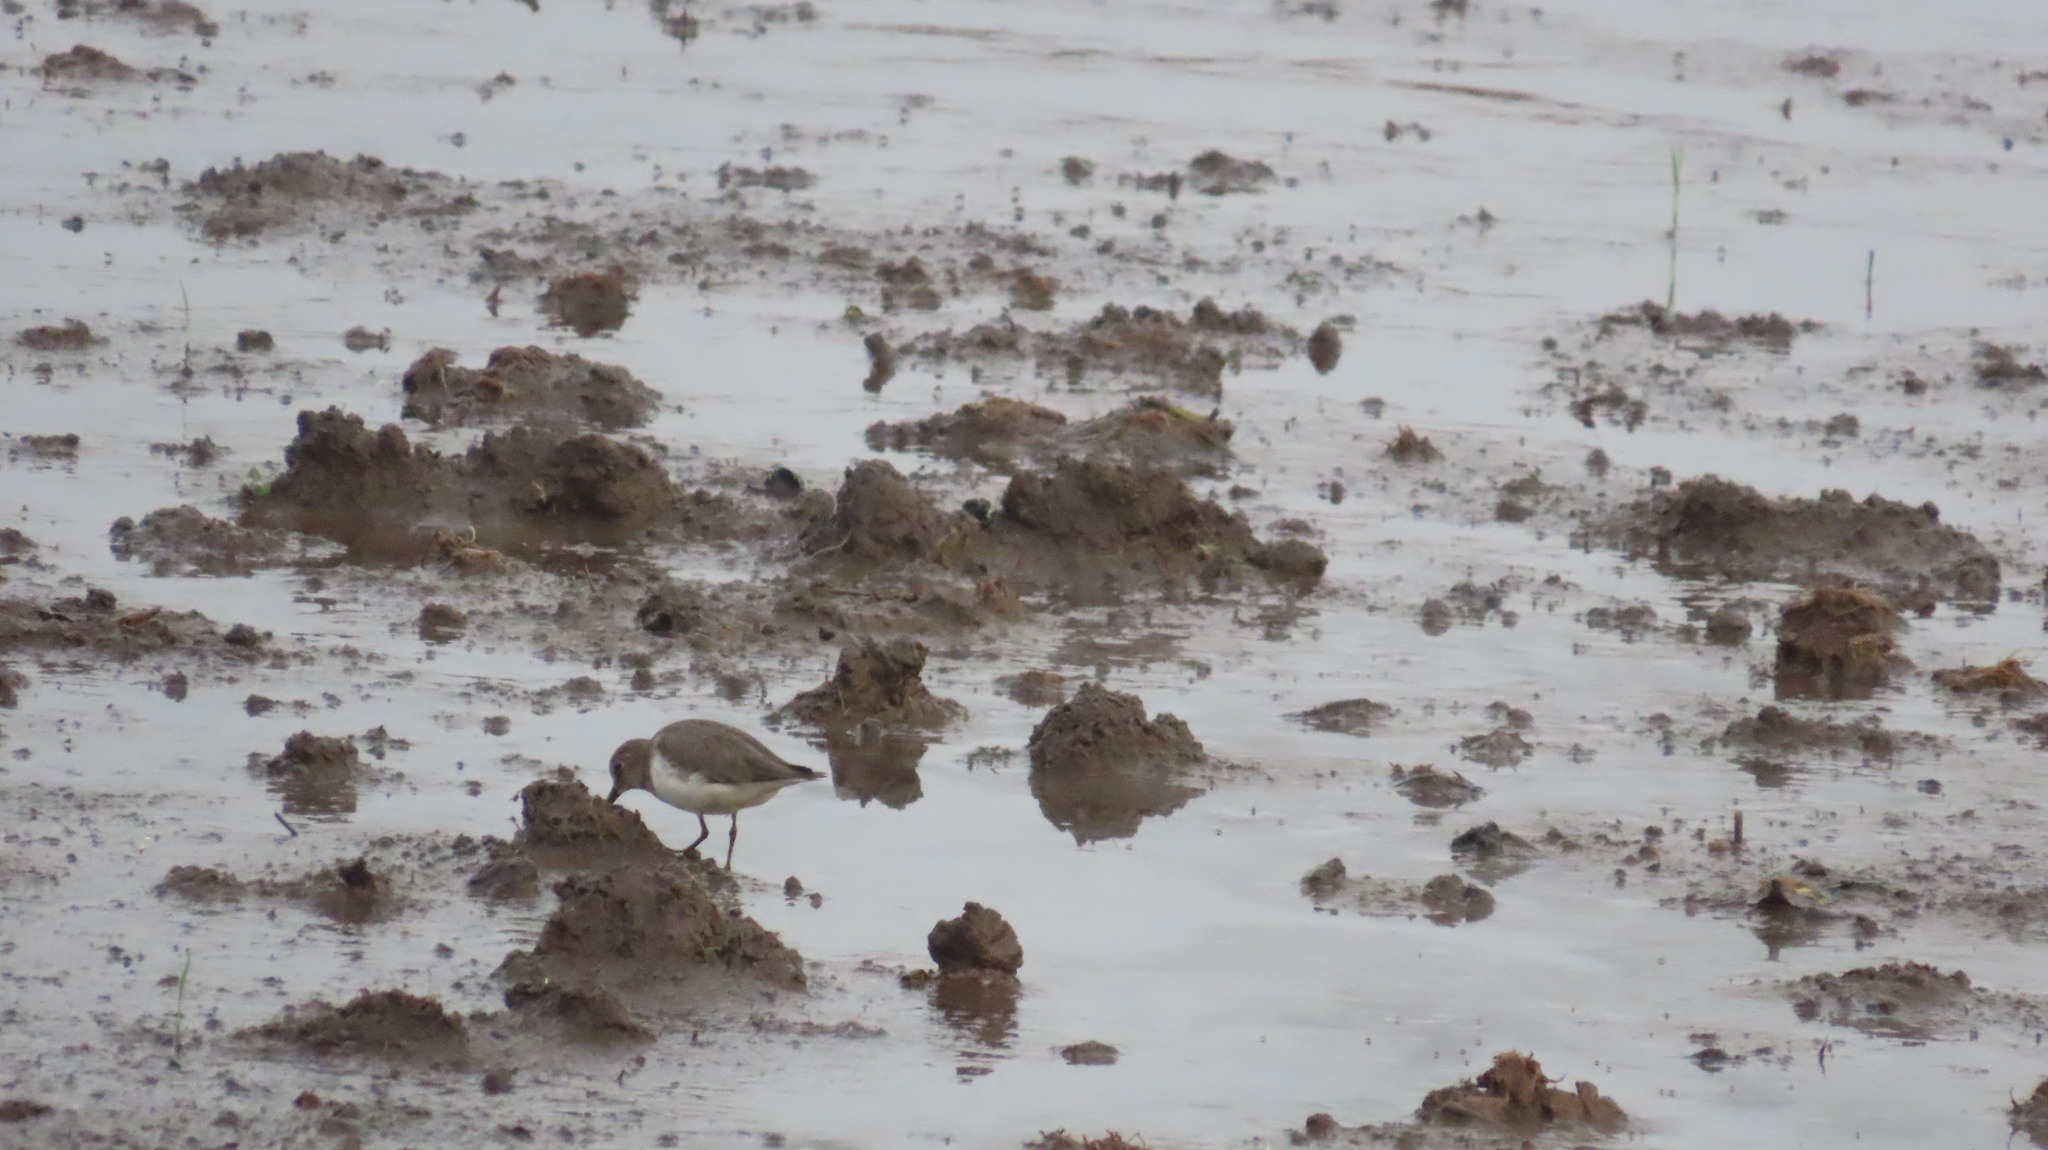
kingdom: Animalia
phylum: Chordata
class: Aves
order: Charadriiformes
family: Scolopacidae
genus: Calidris
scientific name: Calidris temminckii
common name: Temminck's stint
